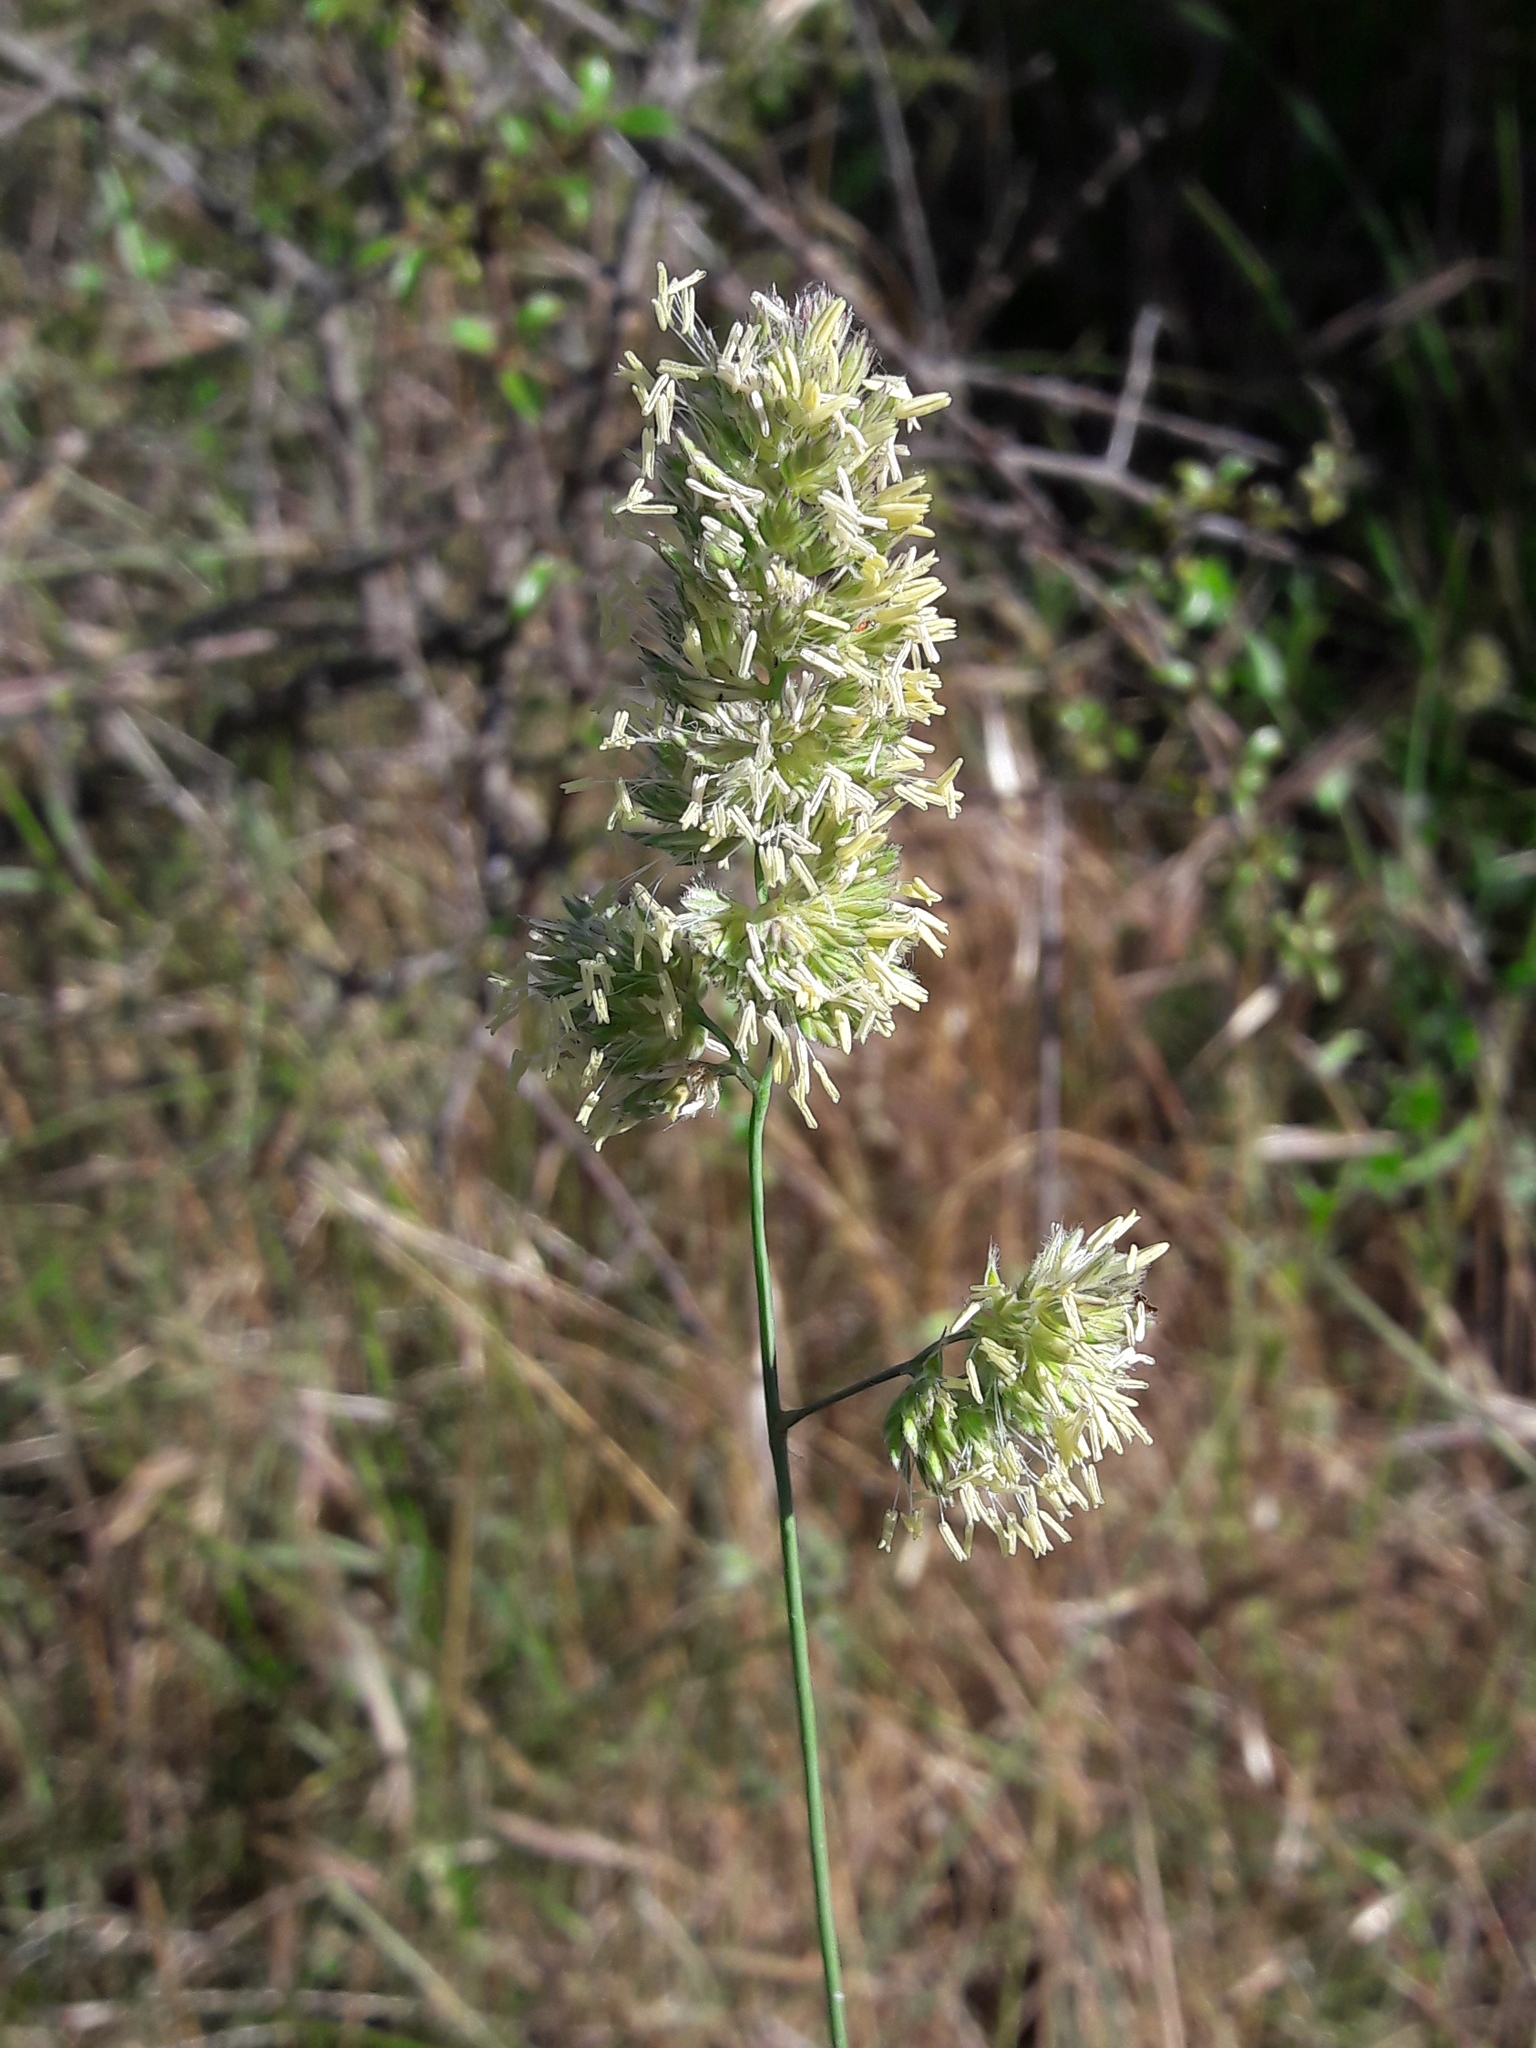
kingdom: Plantae
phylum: Tracheophyta
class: Liliopsida
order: Poales
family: Poaceae
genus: Dactylis
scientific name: Dactylis glomerata
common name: Orchardgrass
